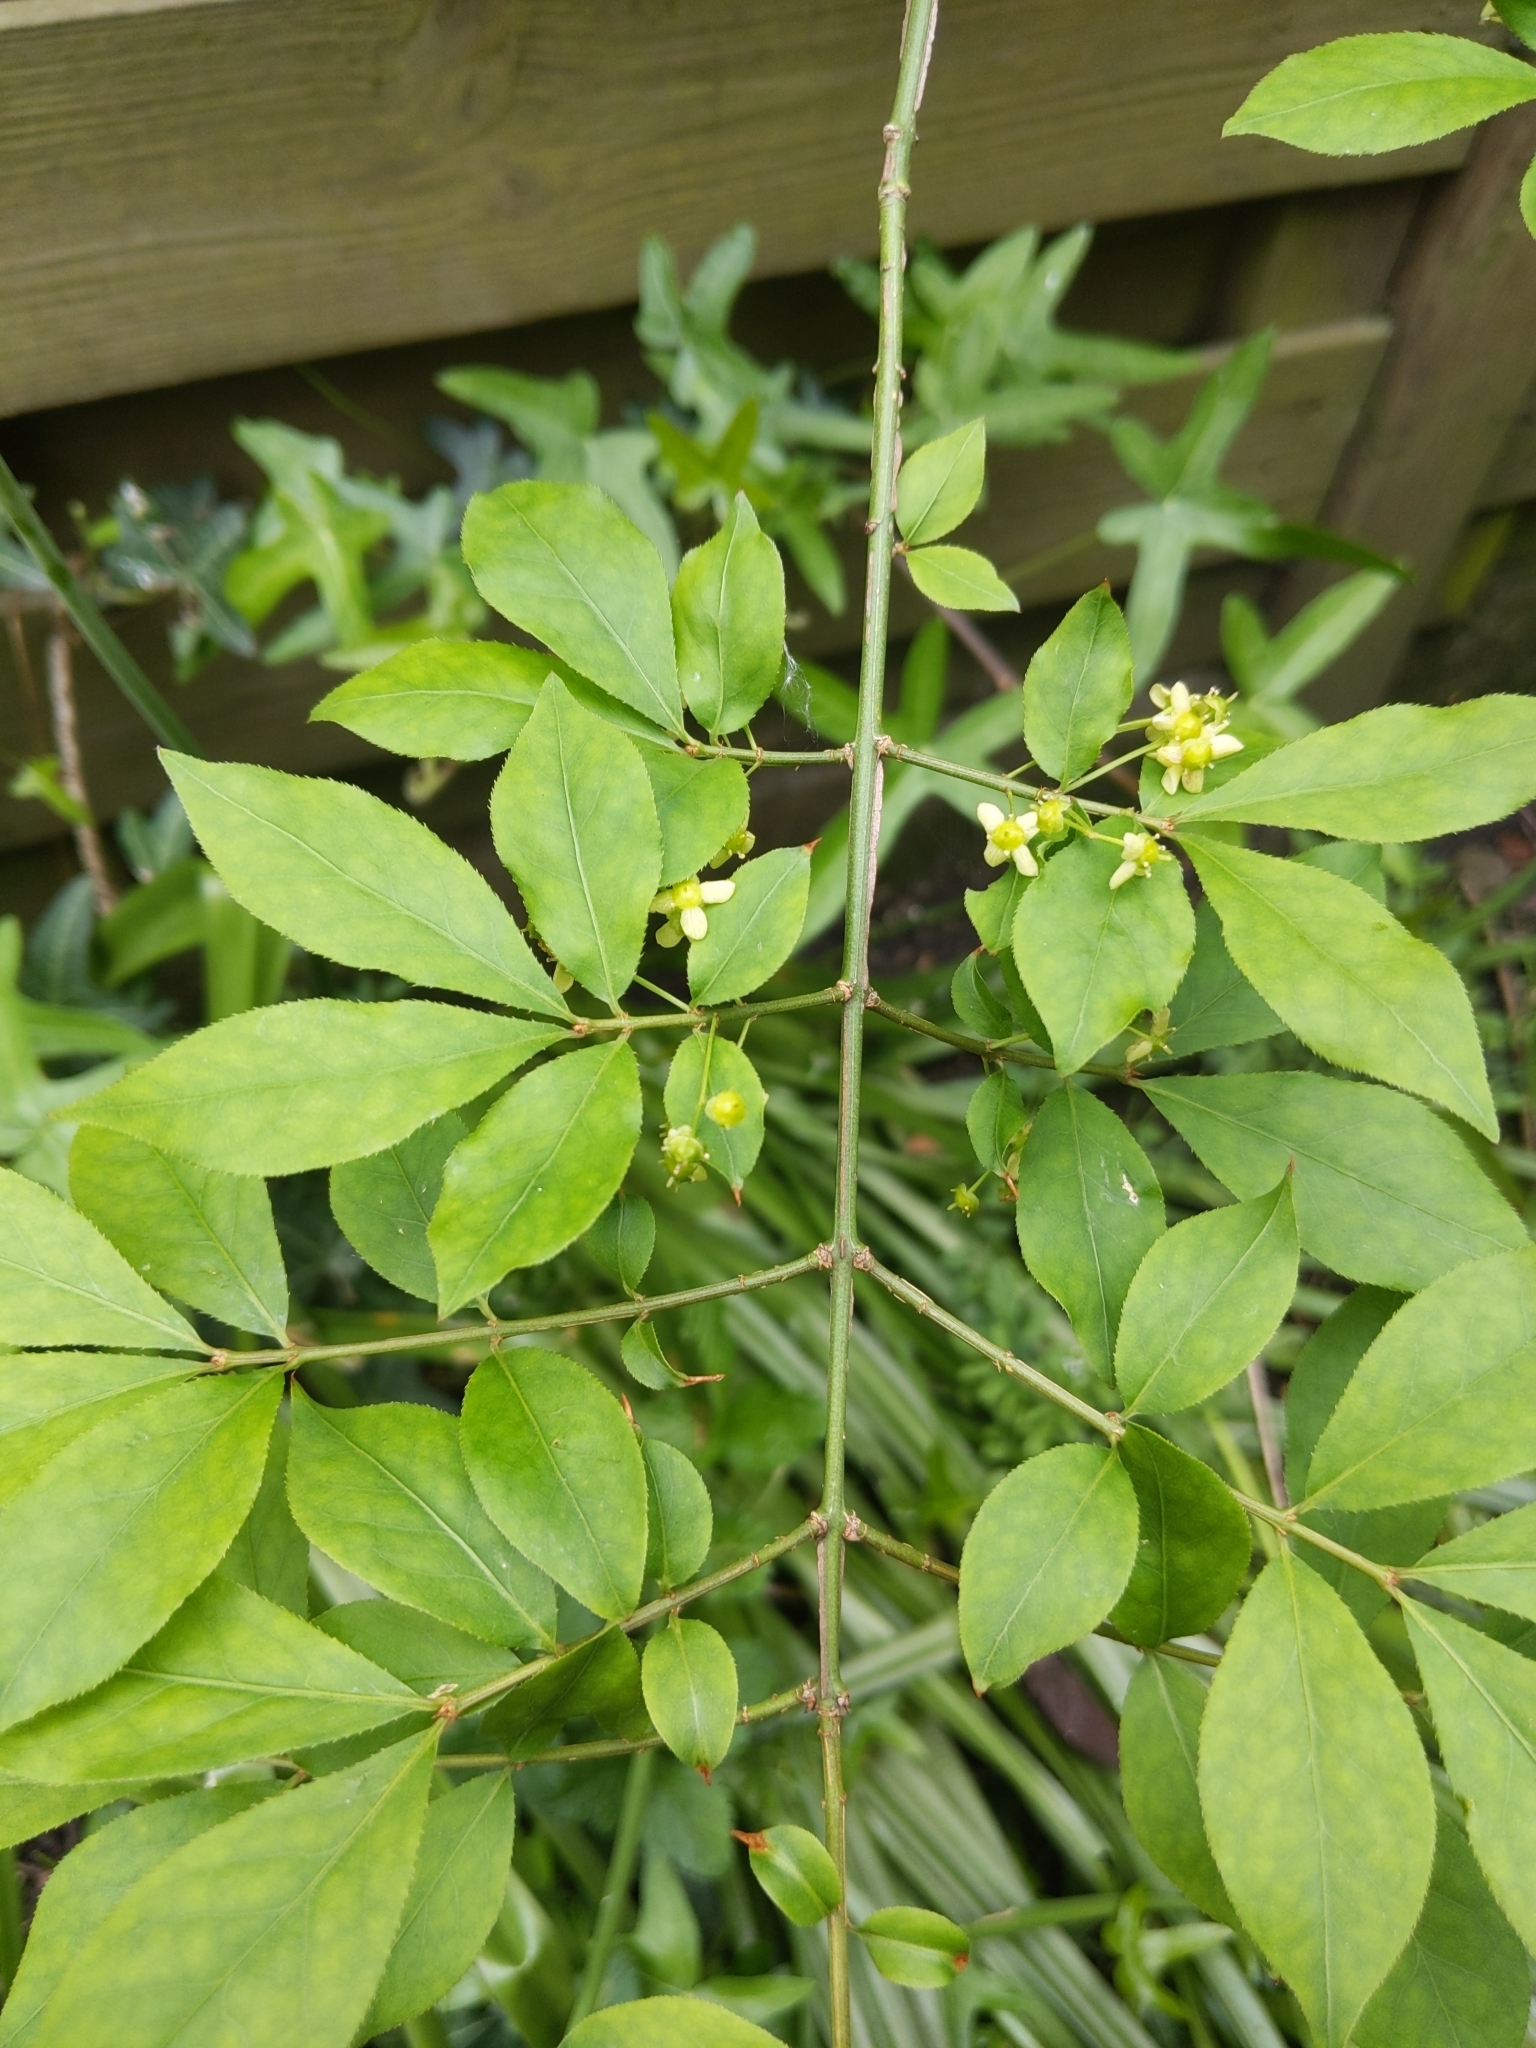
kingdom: Plantae
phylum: Tracheophyta
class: Magnoliopsida
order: Celastrales
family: Celastraceae
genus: Euonymus
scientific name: Euonymus alatus
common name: Winged euonymus
